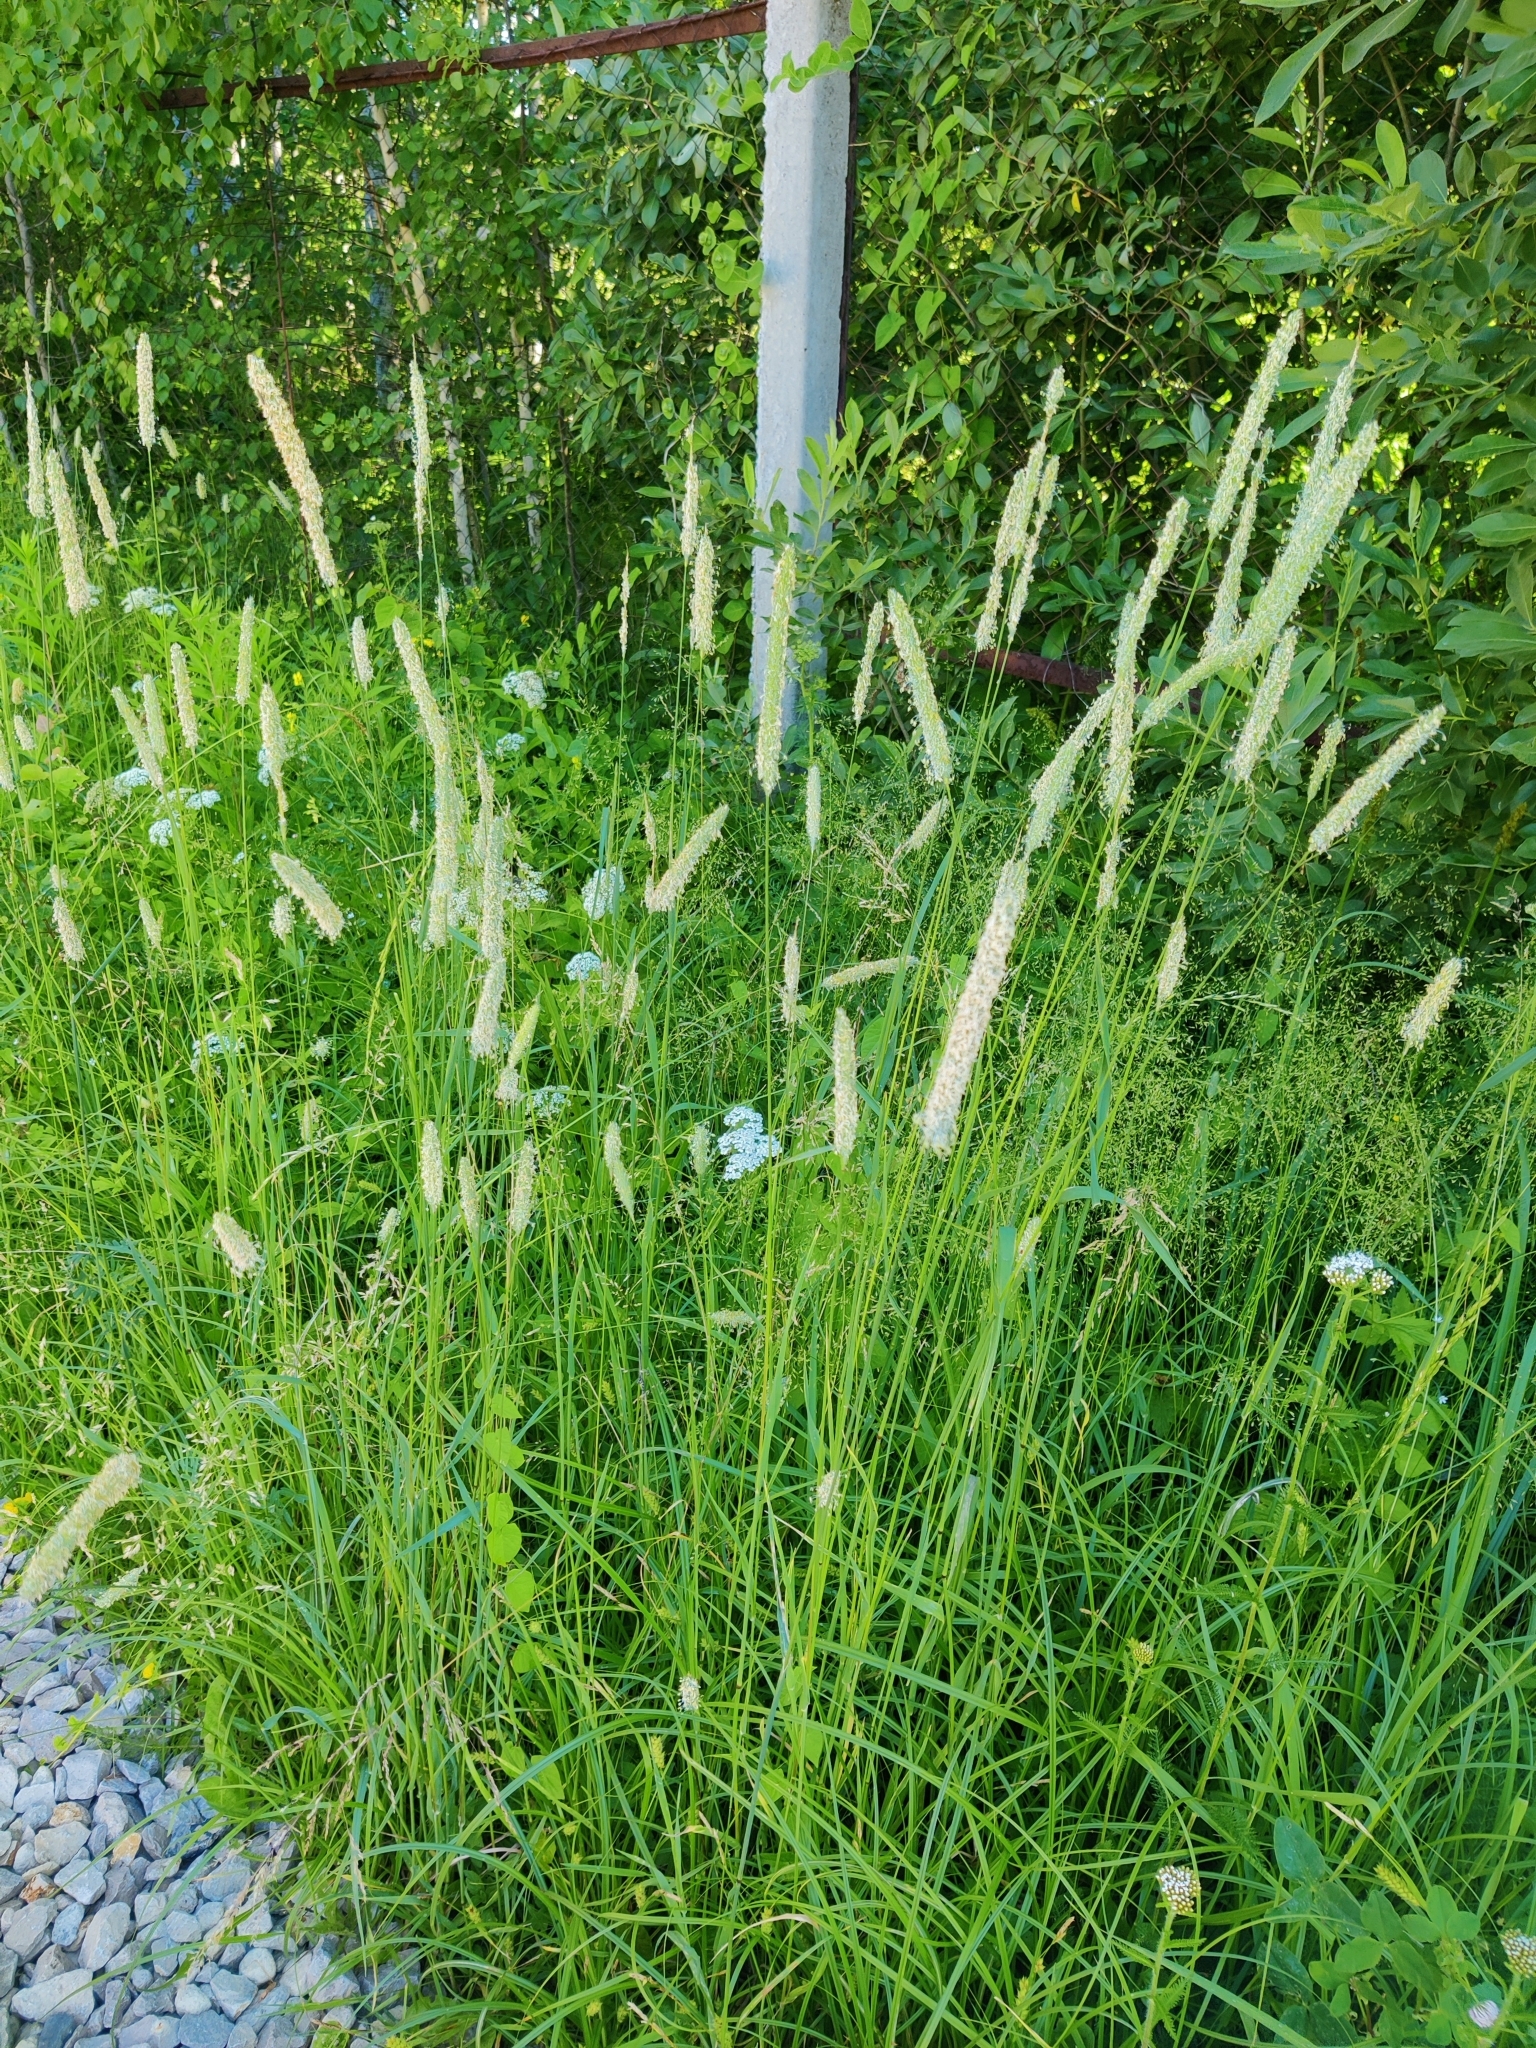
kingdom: Plantae
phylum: Tracheophyta
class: Liliopsida
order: Poales
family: Poaceae
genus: Phleum
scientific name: Phleum pratense
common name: Timothy grass
